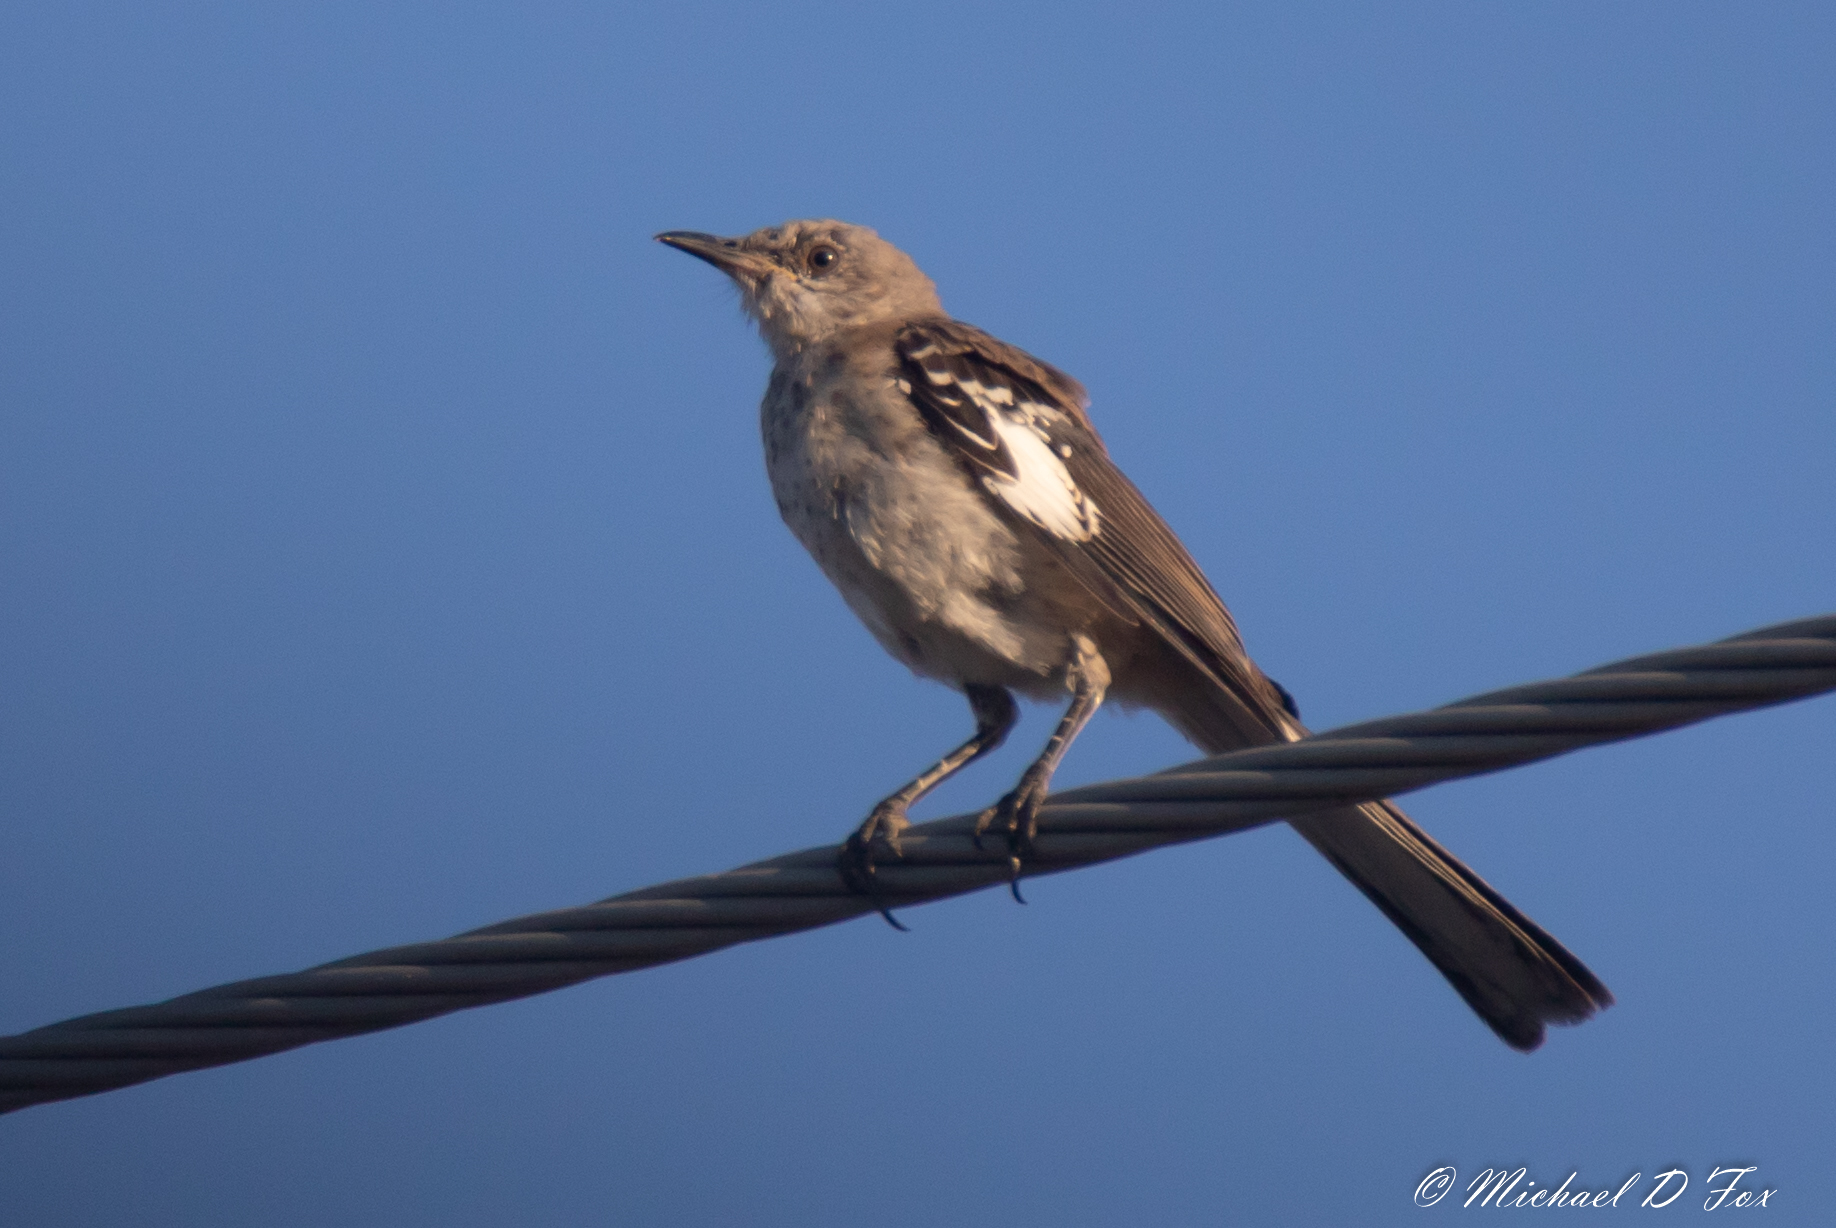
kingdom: Animalia
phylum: Chordata
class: Aves
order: Passeriformes
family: Mimidae
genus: Mimus
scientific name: Mimus polyglottos
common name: Northern mockingbird
